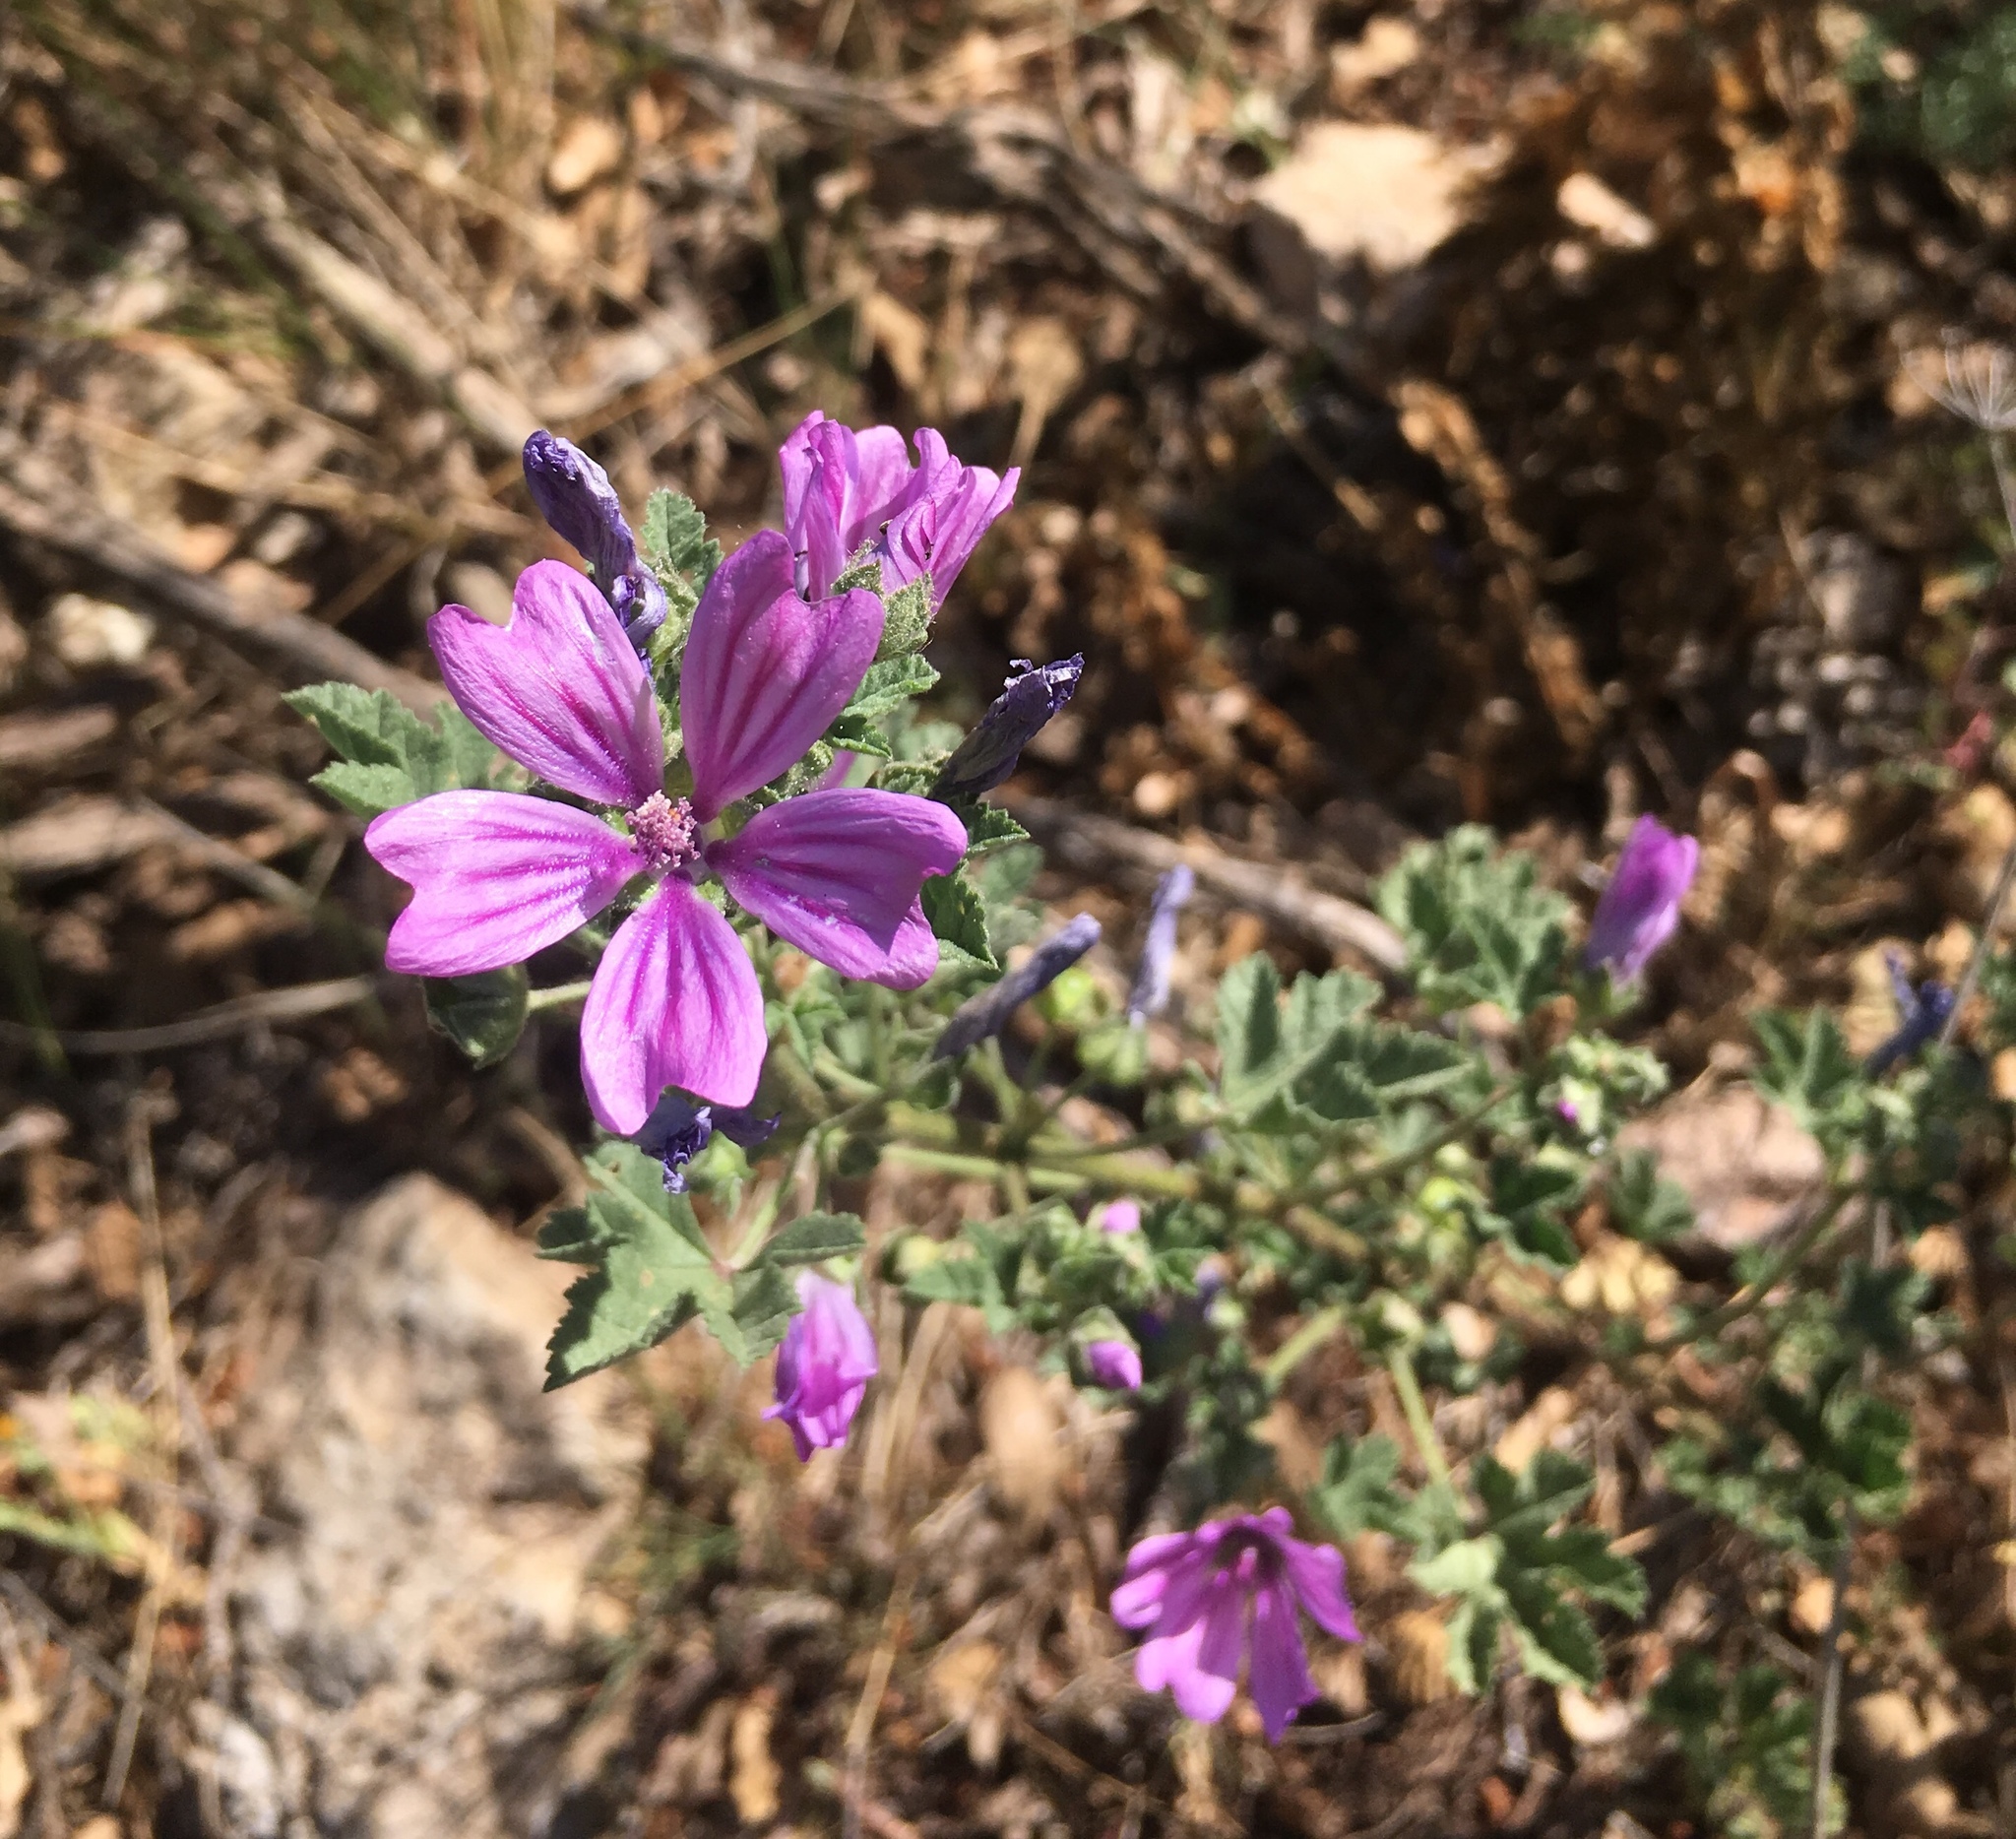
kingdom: Plantae
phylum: Tracheophyta
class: Magnoliopsida
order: Malvales
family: Malvaceae
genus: Malva
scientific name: Malva sylvestris
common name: Common mallow
